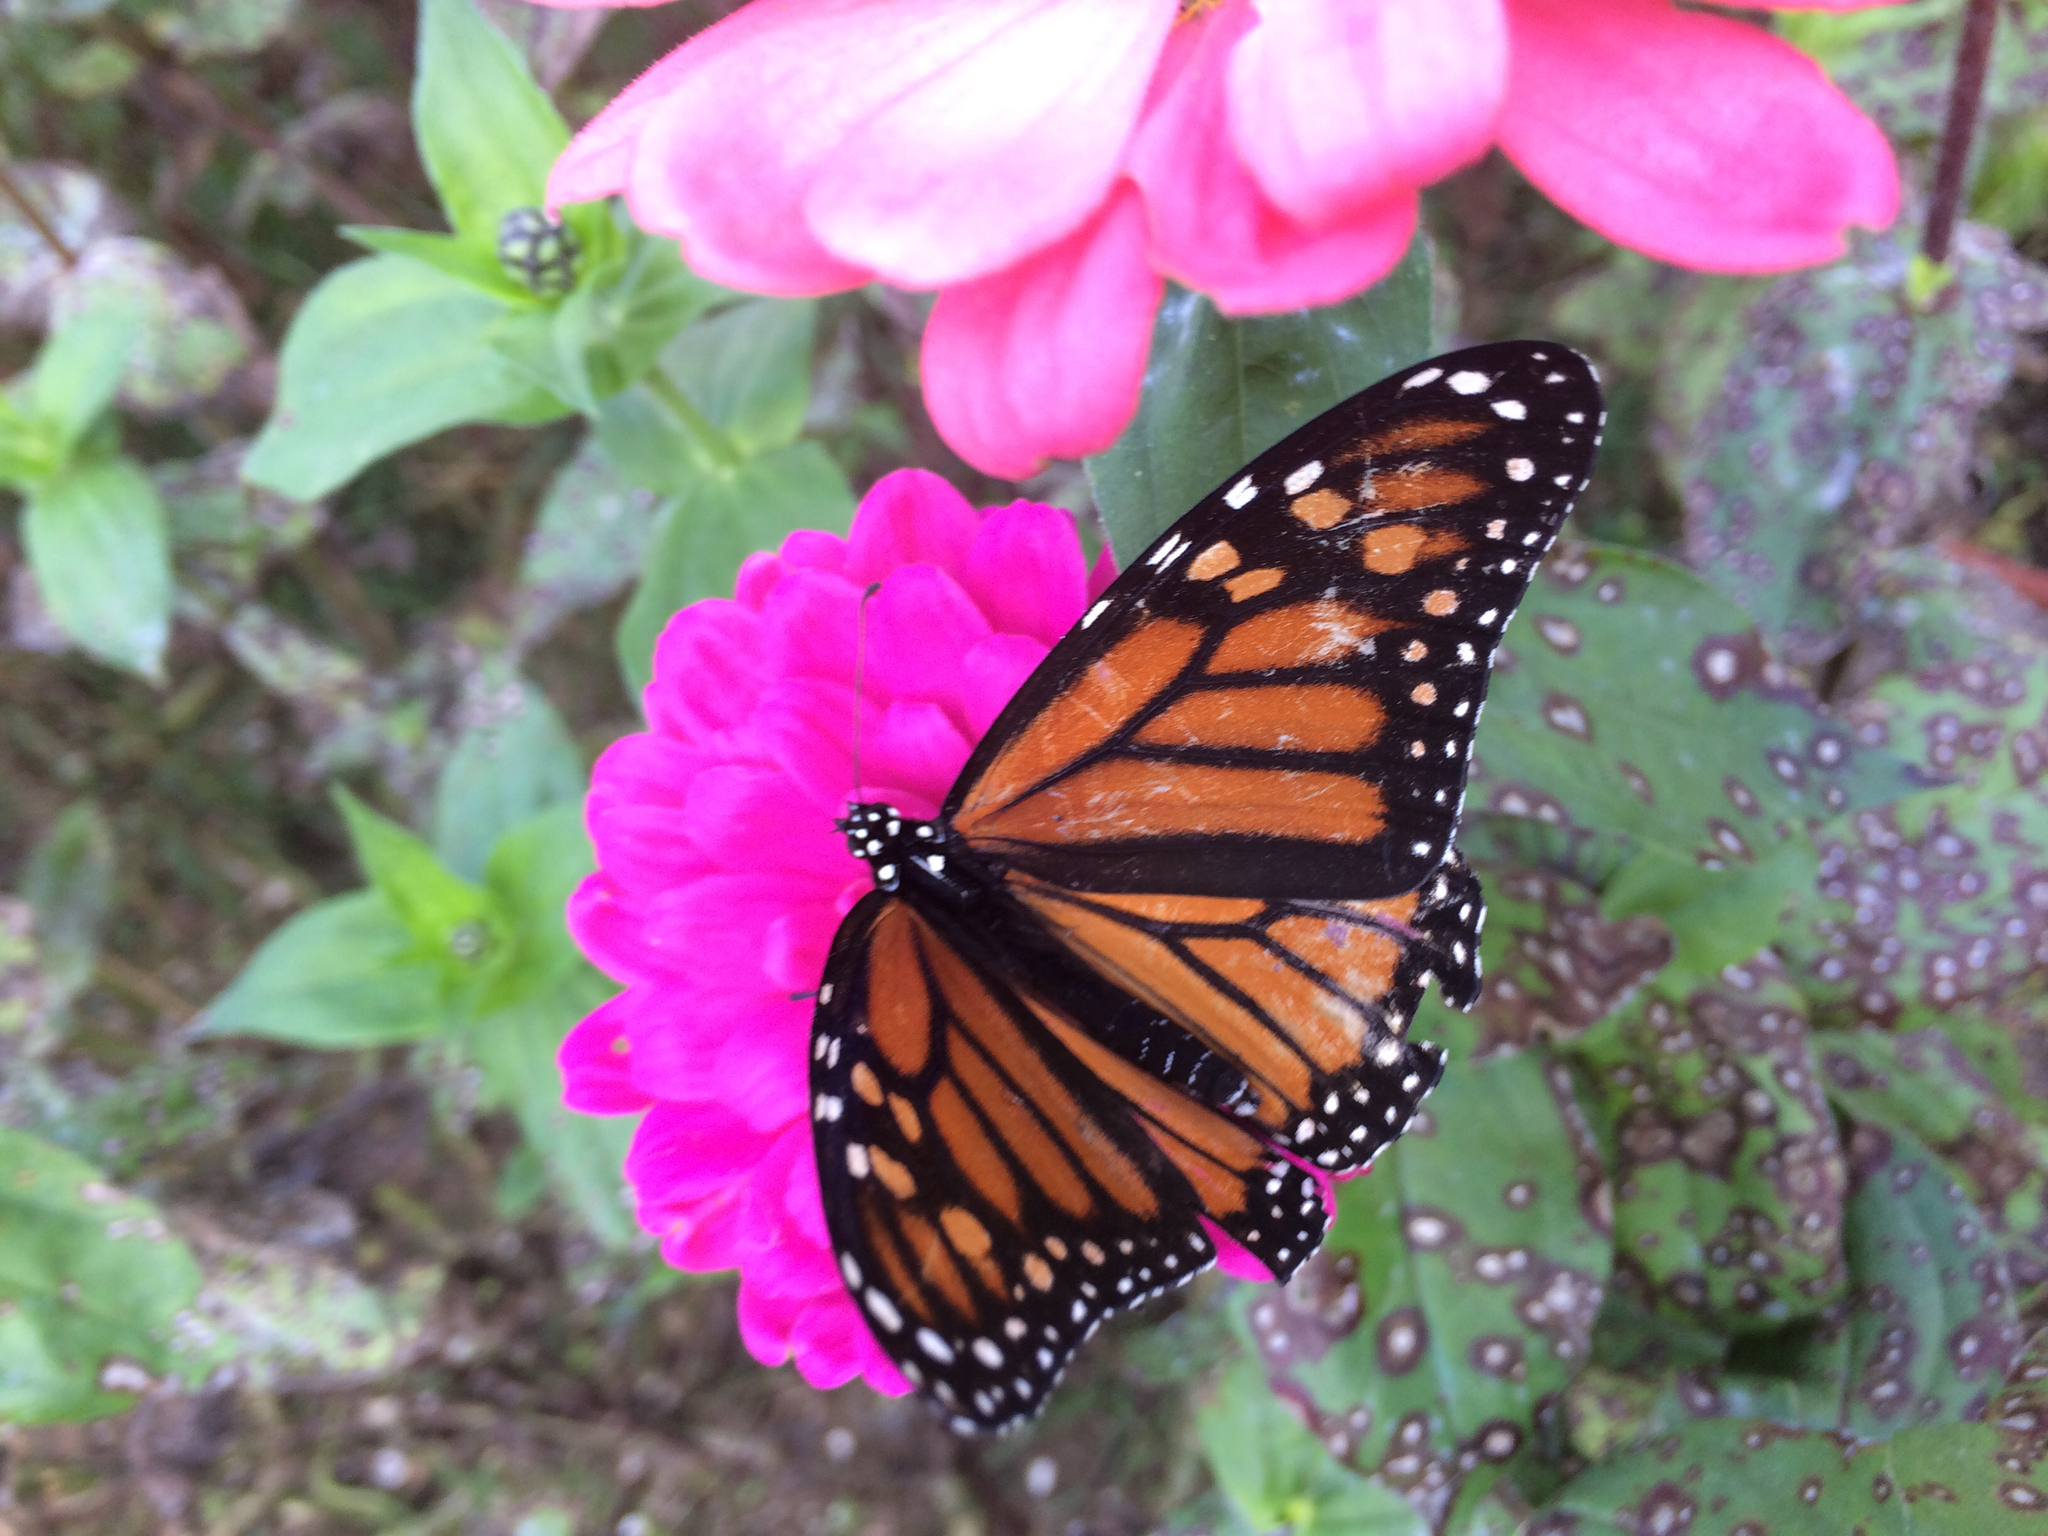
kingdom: Animalia
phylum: Arthropoda
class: Insecta
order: Lepidoptera
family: Nymphalidae
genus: Danaus
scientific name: Danaus plexippus
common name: Monarch
